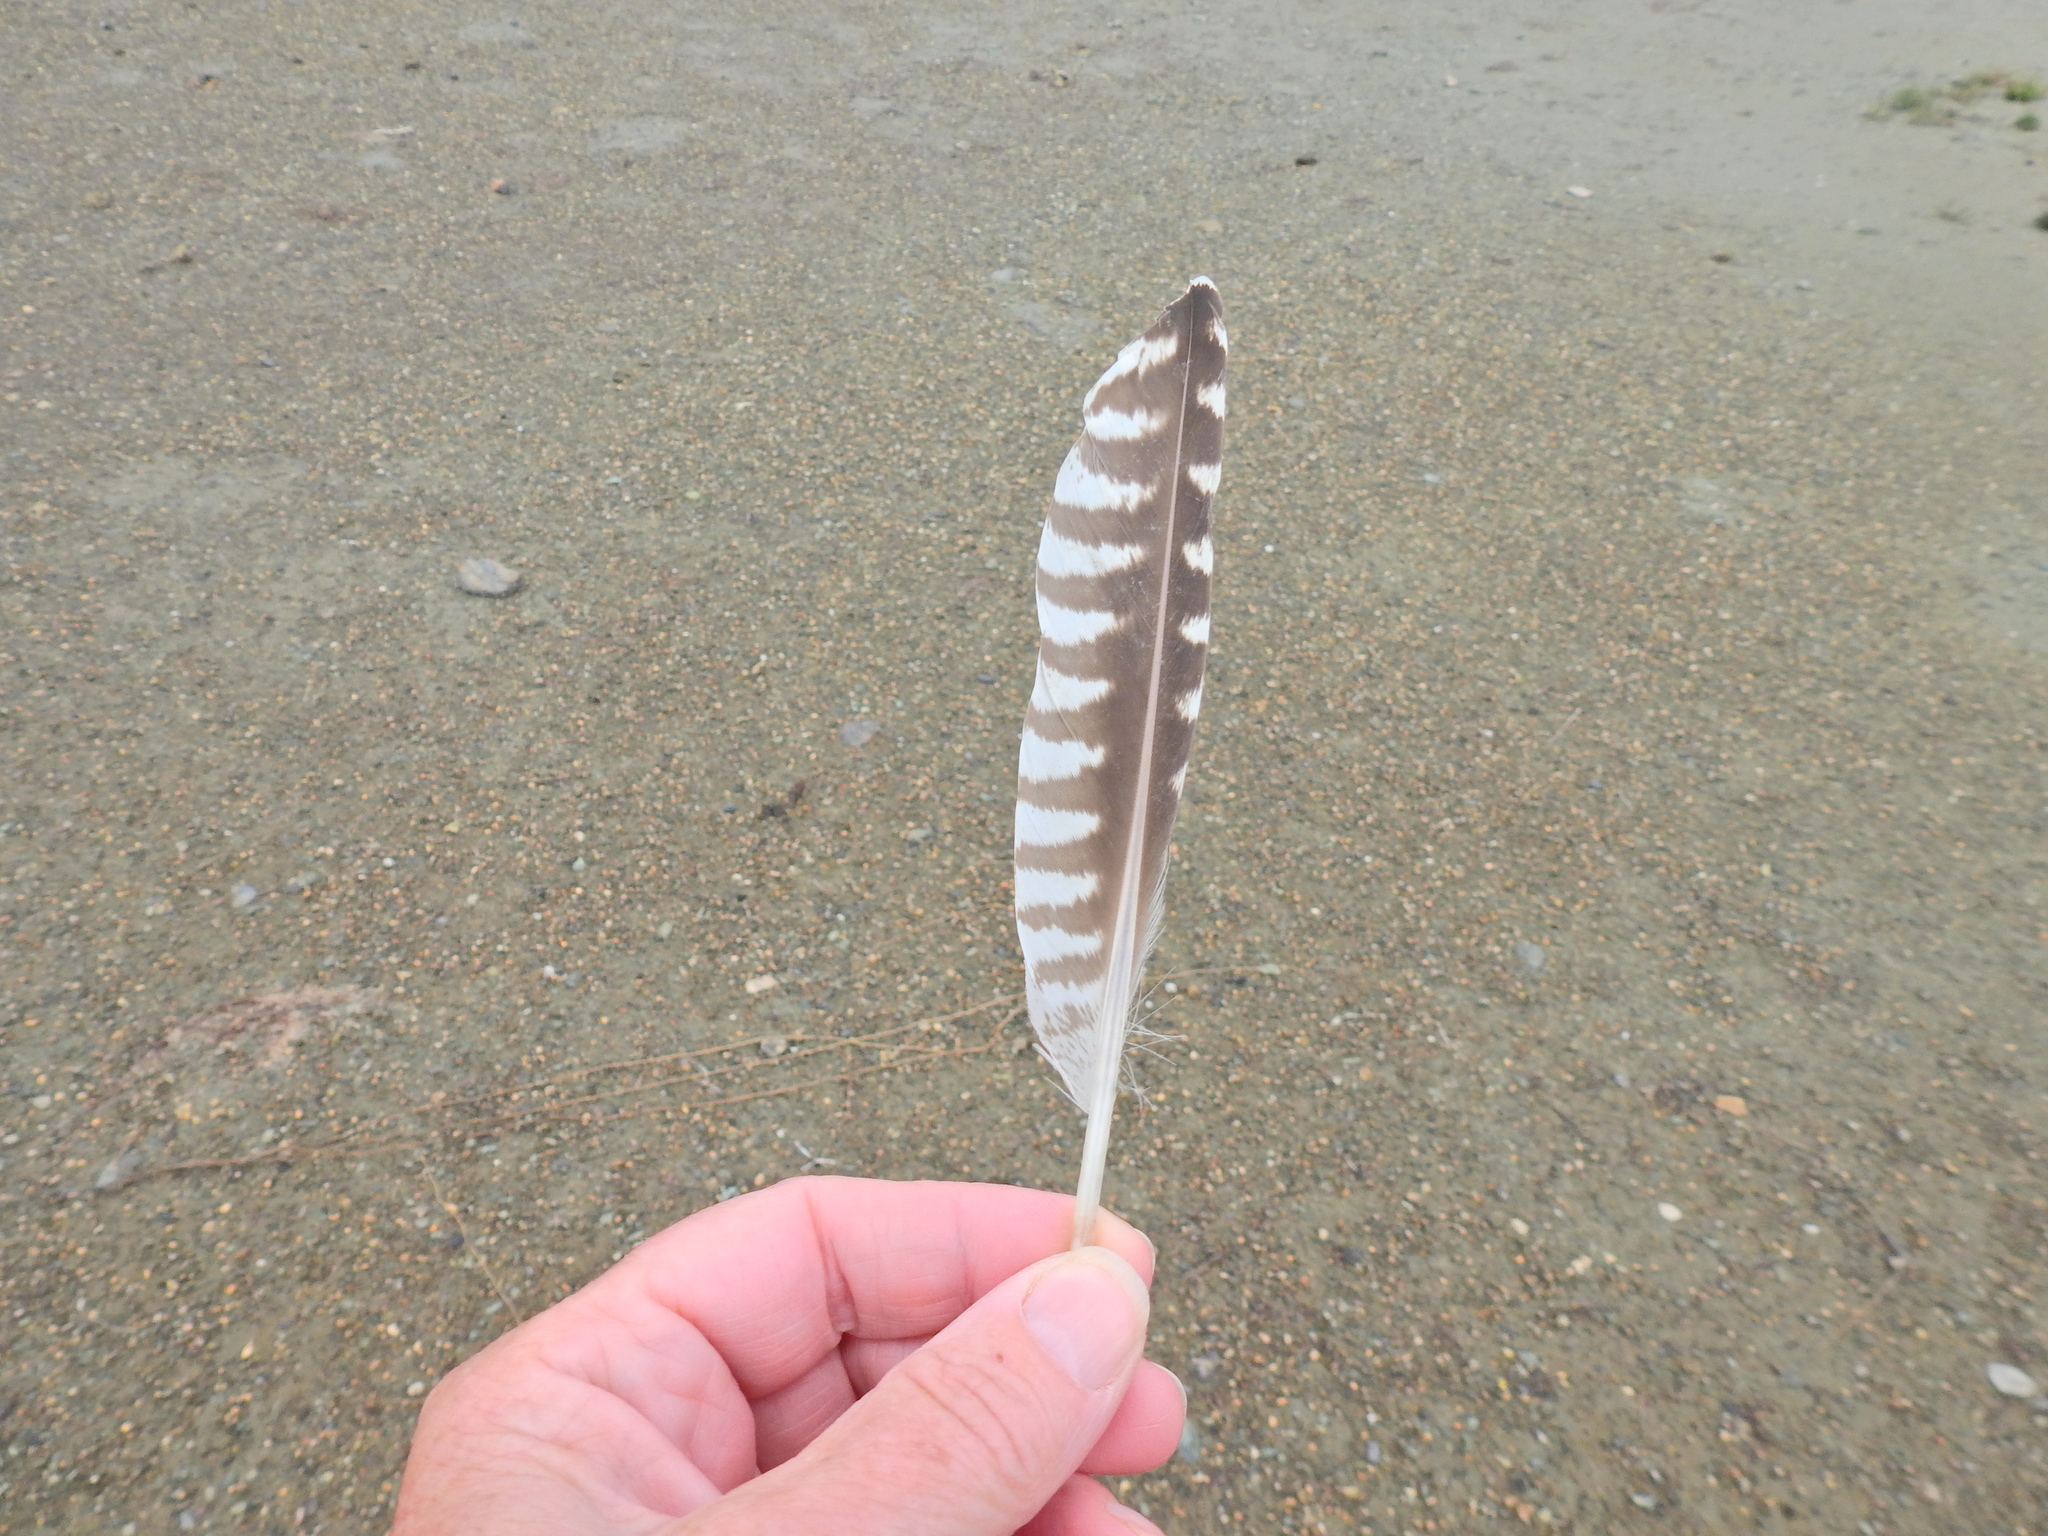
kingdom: Animalia
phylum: Chordata
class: Aves
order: Charadriiformes
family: Scolopacidae
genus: Numenius
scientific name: Numenius arquata
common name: Eurasian curlew
